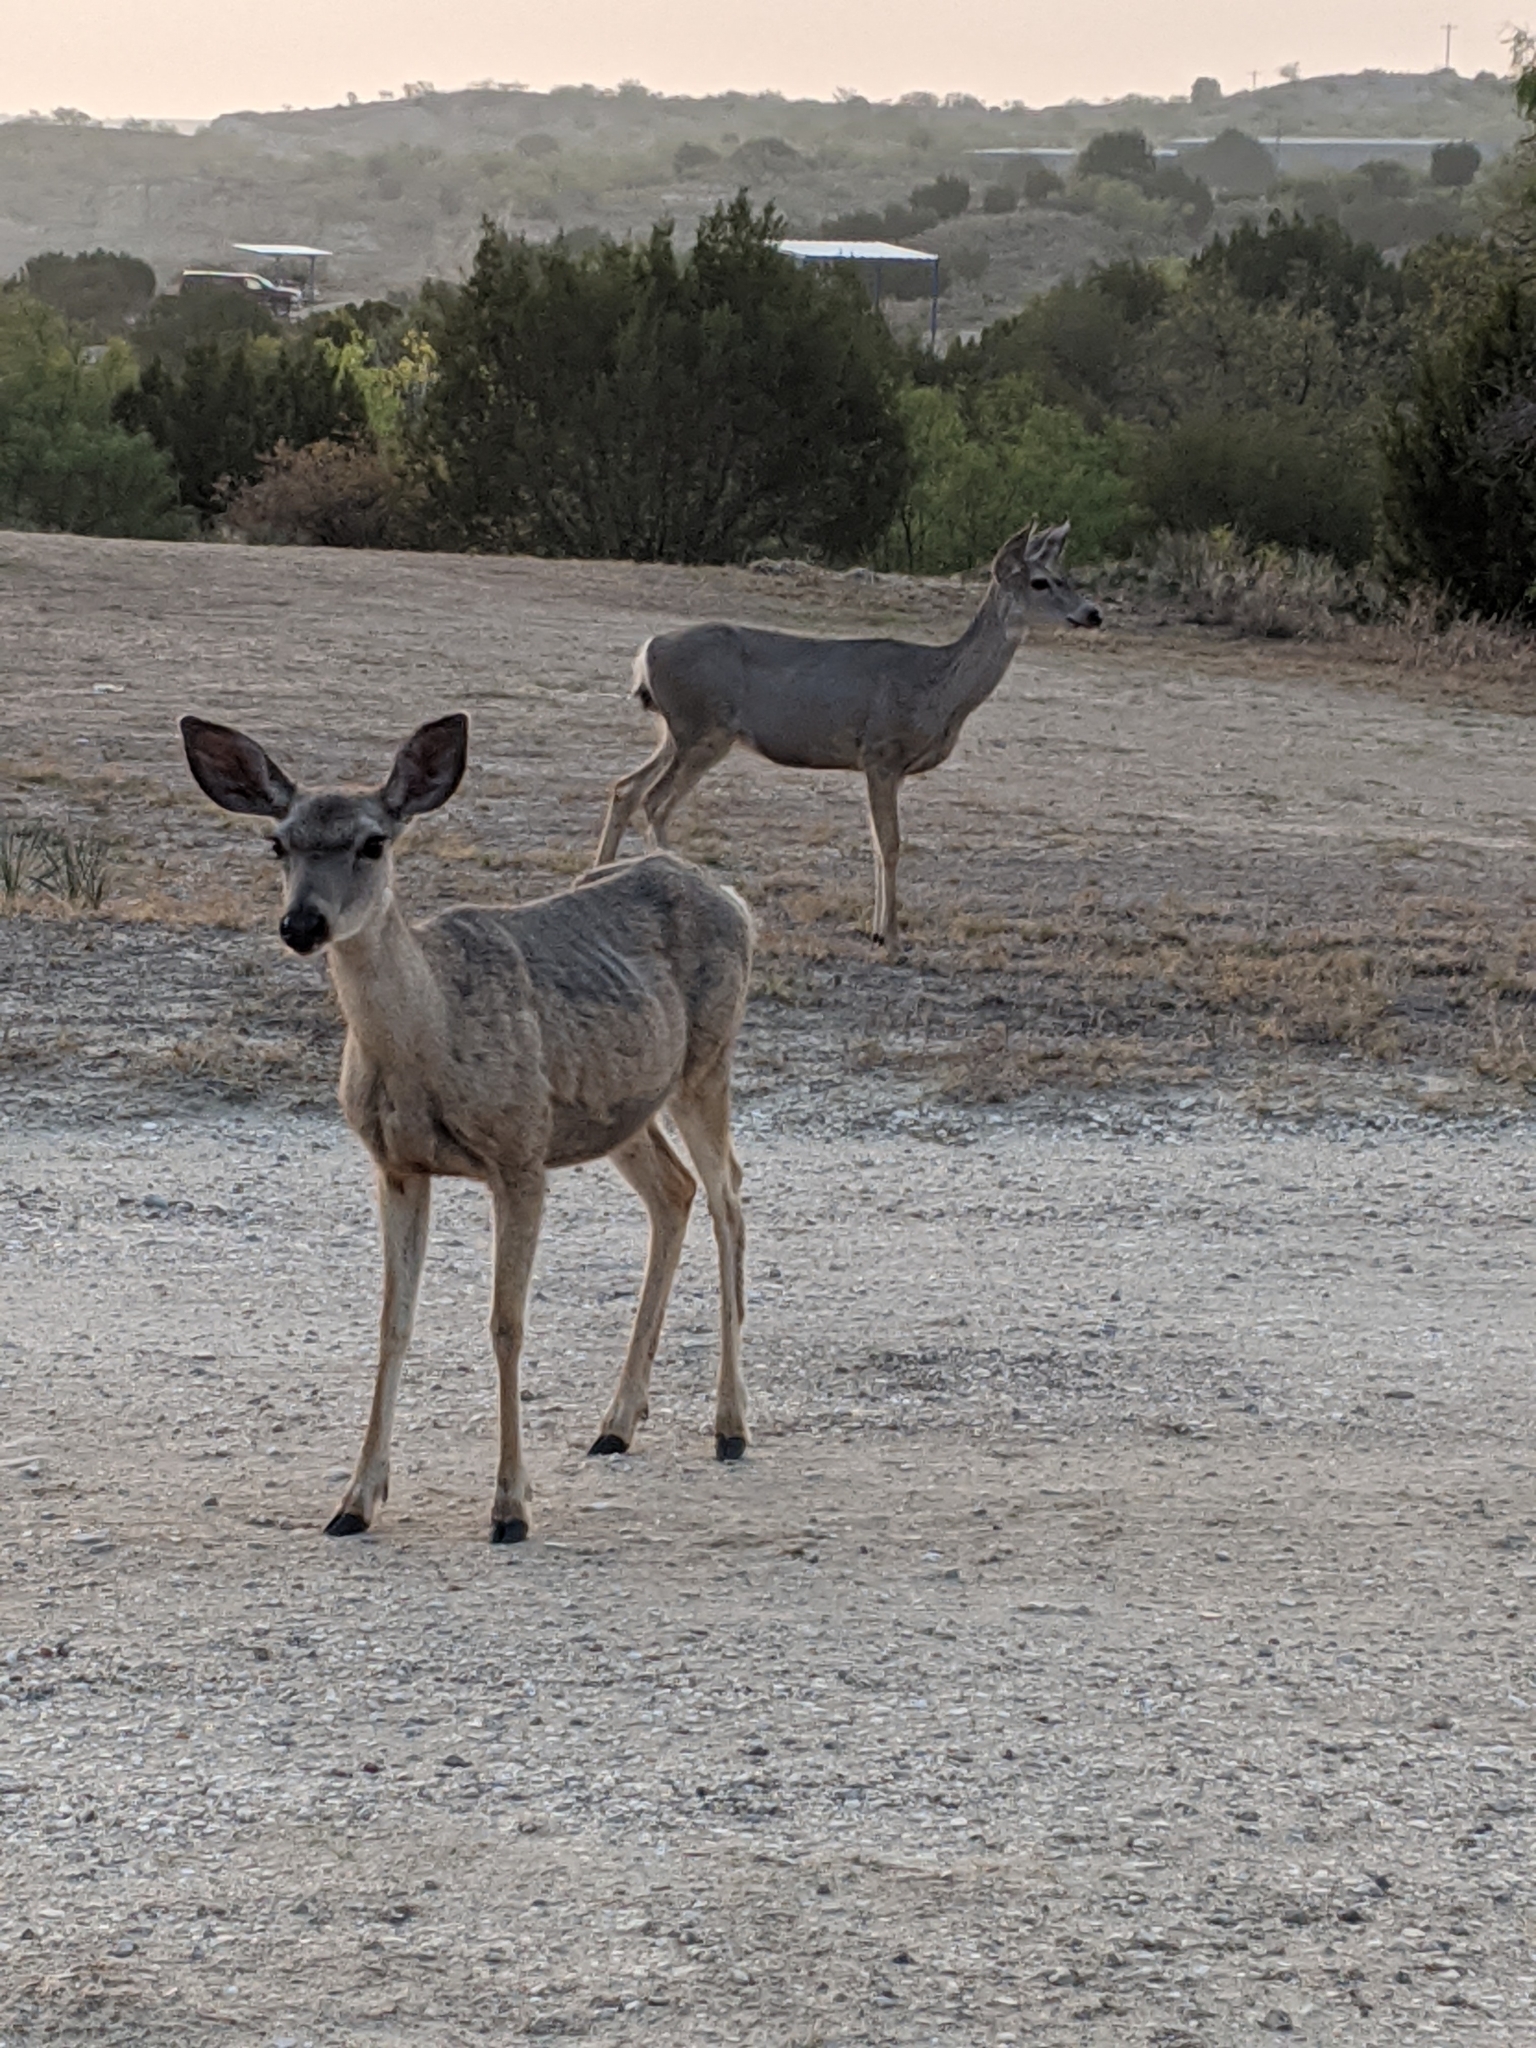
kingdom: Animalia
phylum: Chordata
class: Mammalia
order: Artiodactyla
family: Cervidae
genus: Odocoileus
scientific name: Odocoileus hemionus
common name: Mule deer
